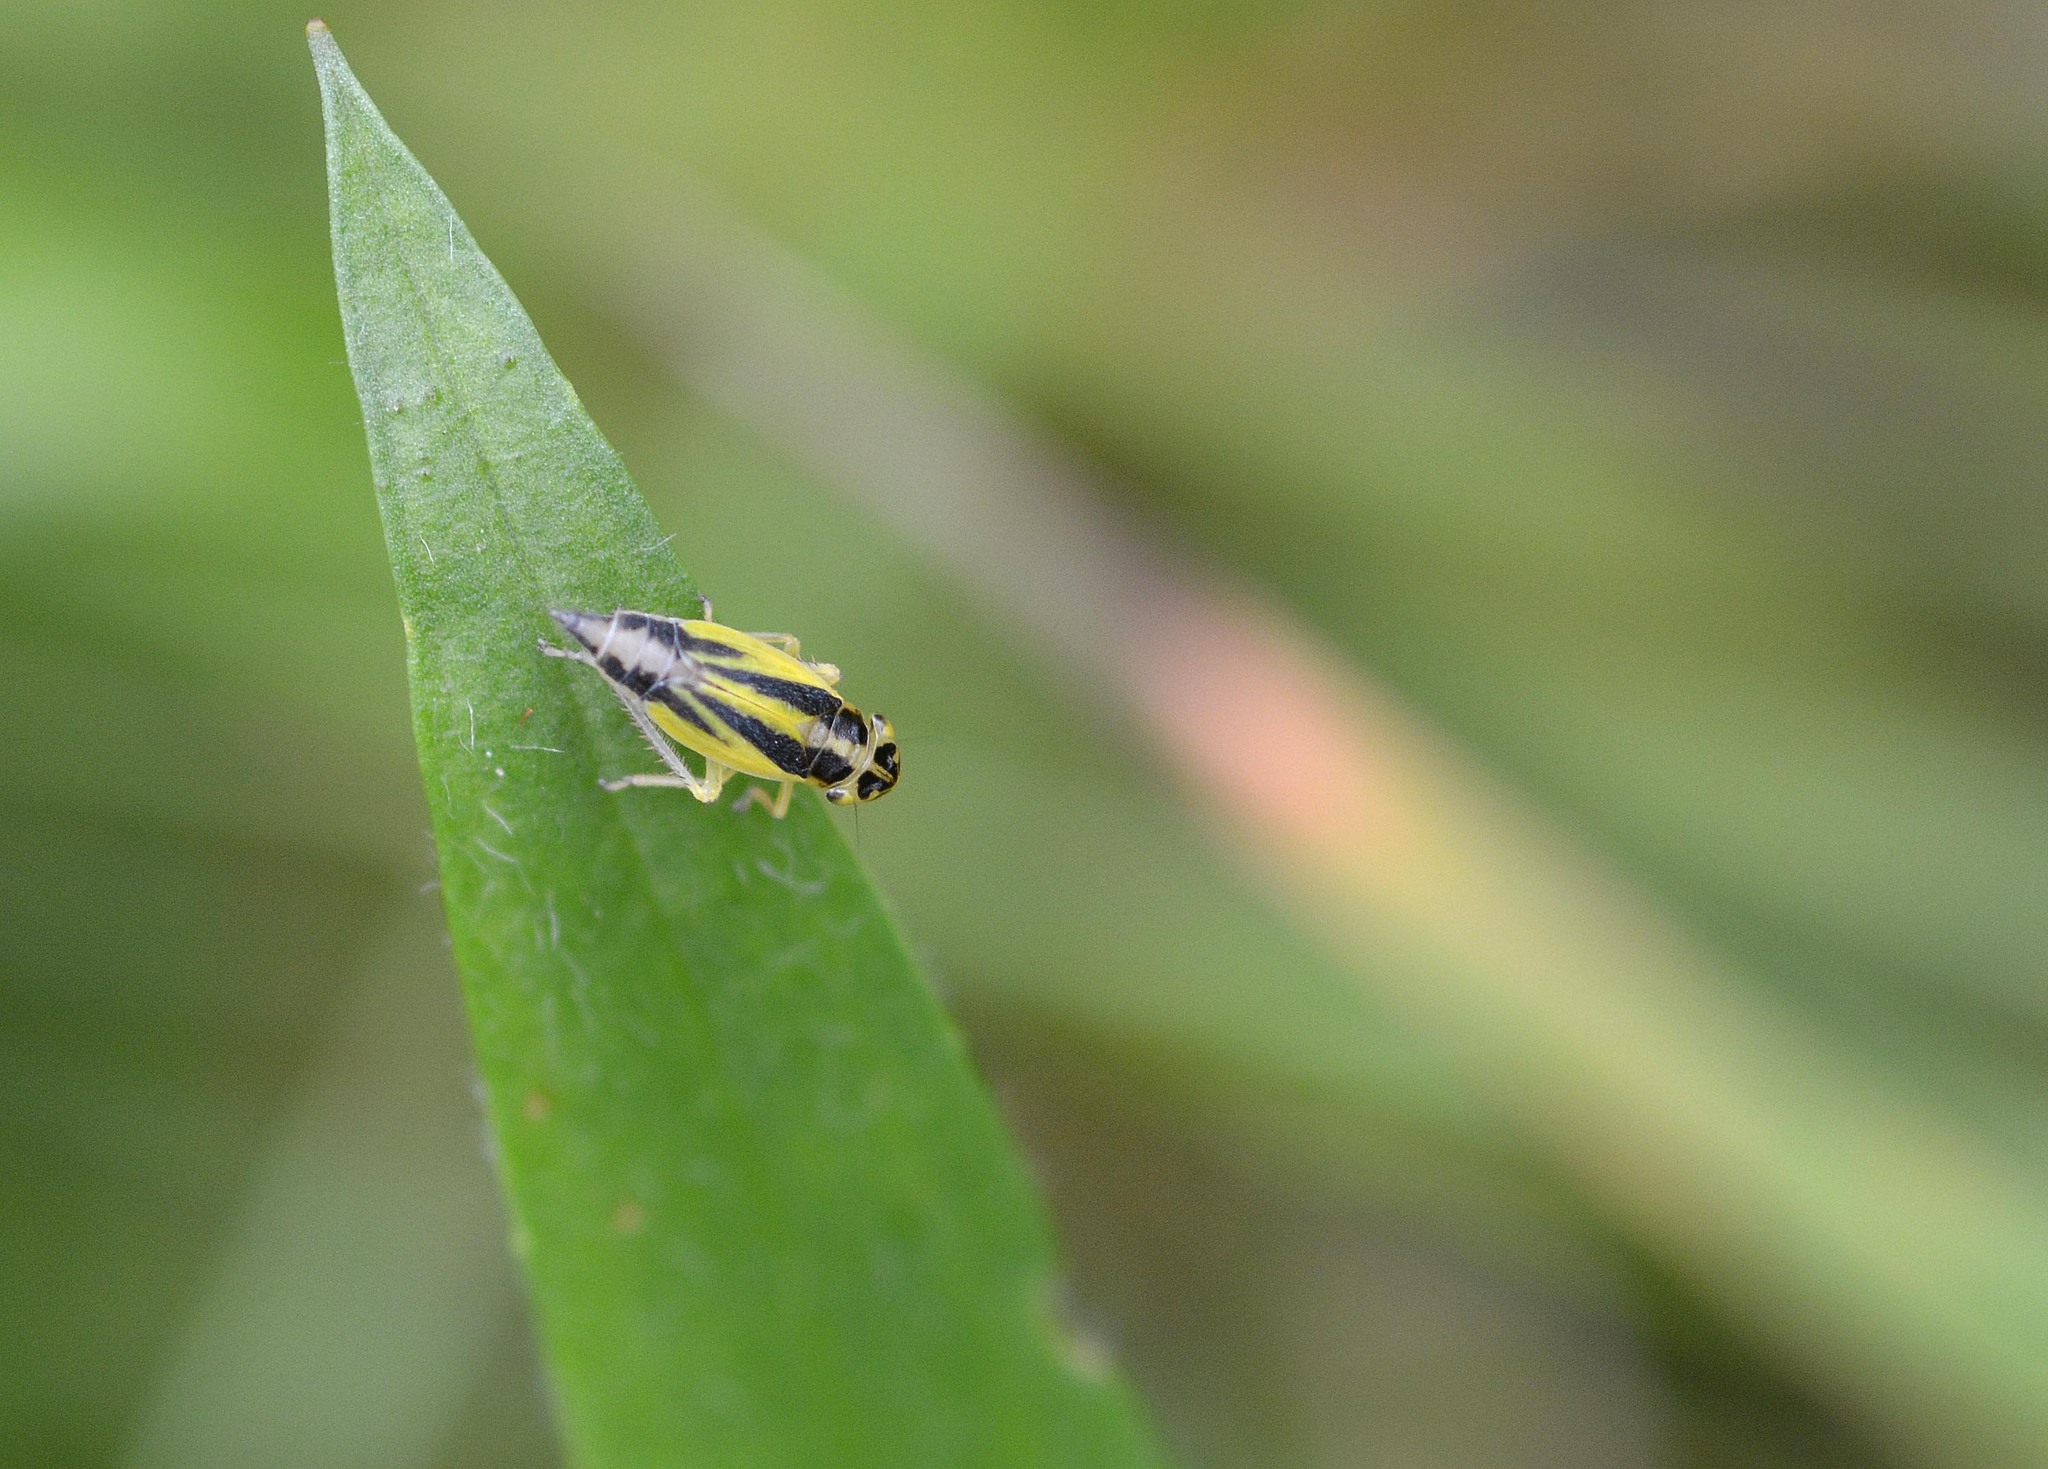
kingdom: Animalia
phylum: Arthropoda
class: Insecta
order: Hemiptera
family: Cicadellidae
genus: Evacanthus
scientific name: Evacanthus interruptus
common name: Leafhopper
